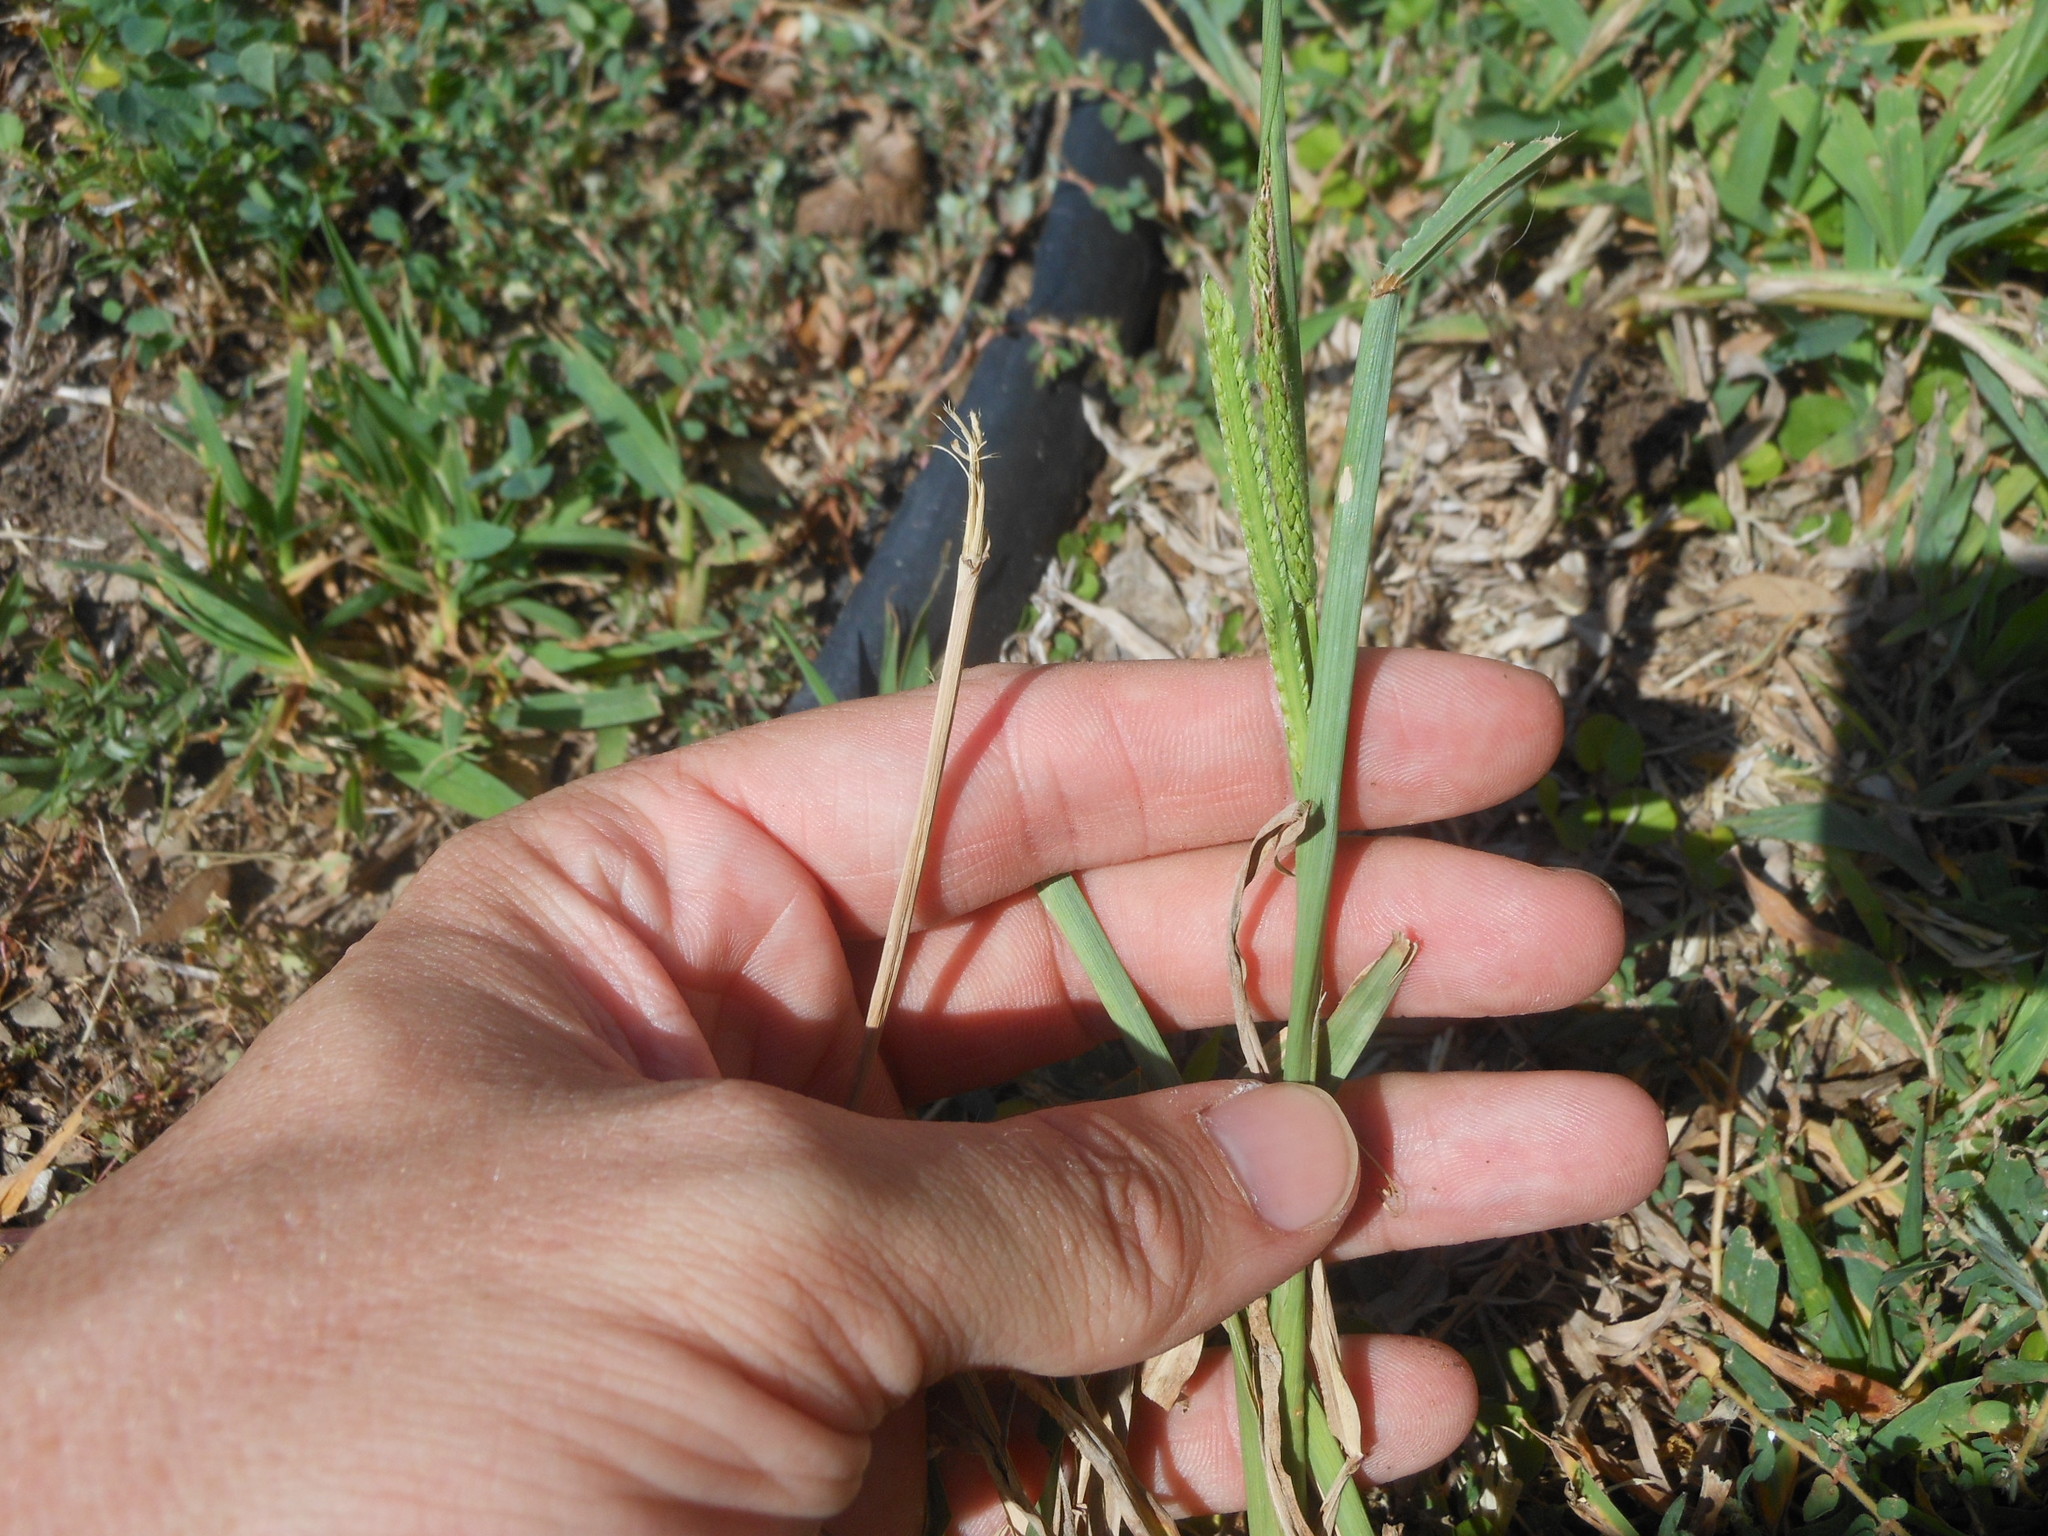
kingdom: Plantae
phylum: Tracheophyta
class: Liliopsida
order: Poales
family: Poaceae
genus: Paspalum
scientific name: Paspalum dilatatum
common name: Dallisgrass
